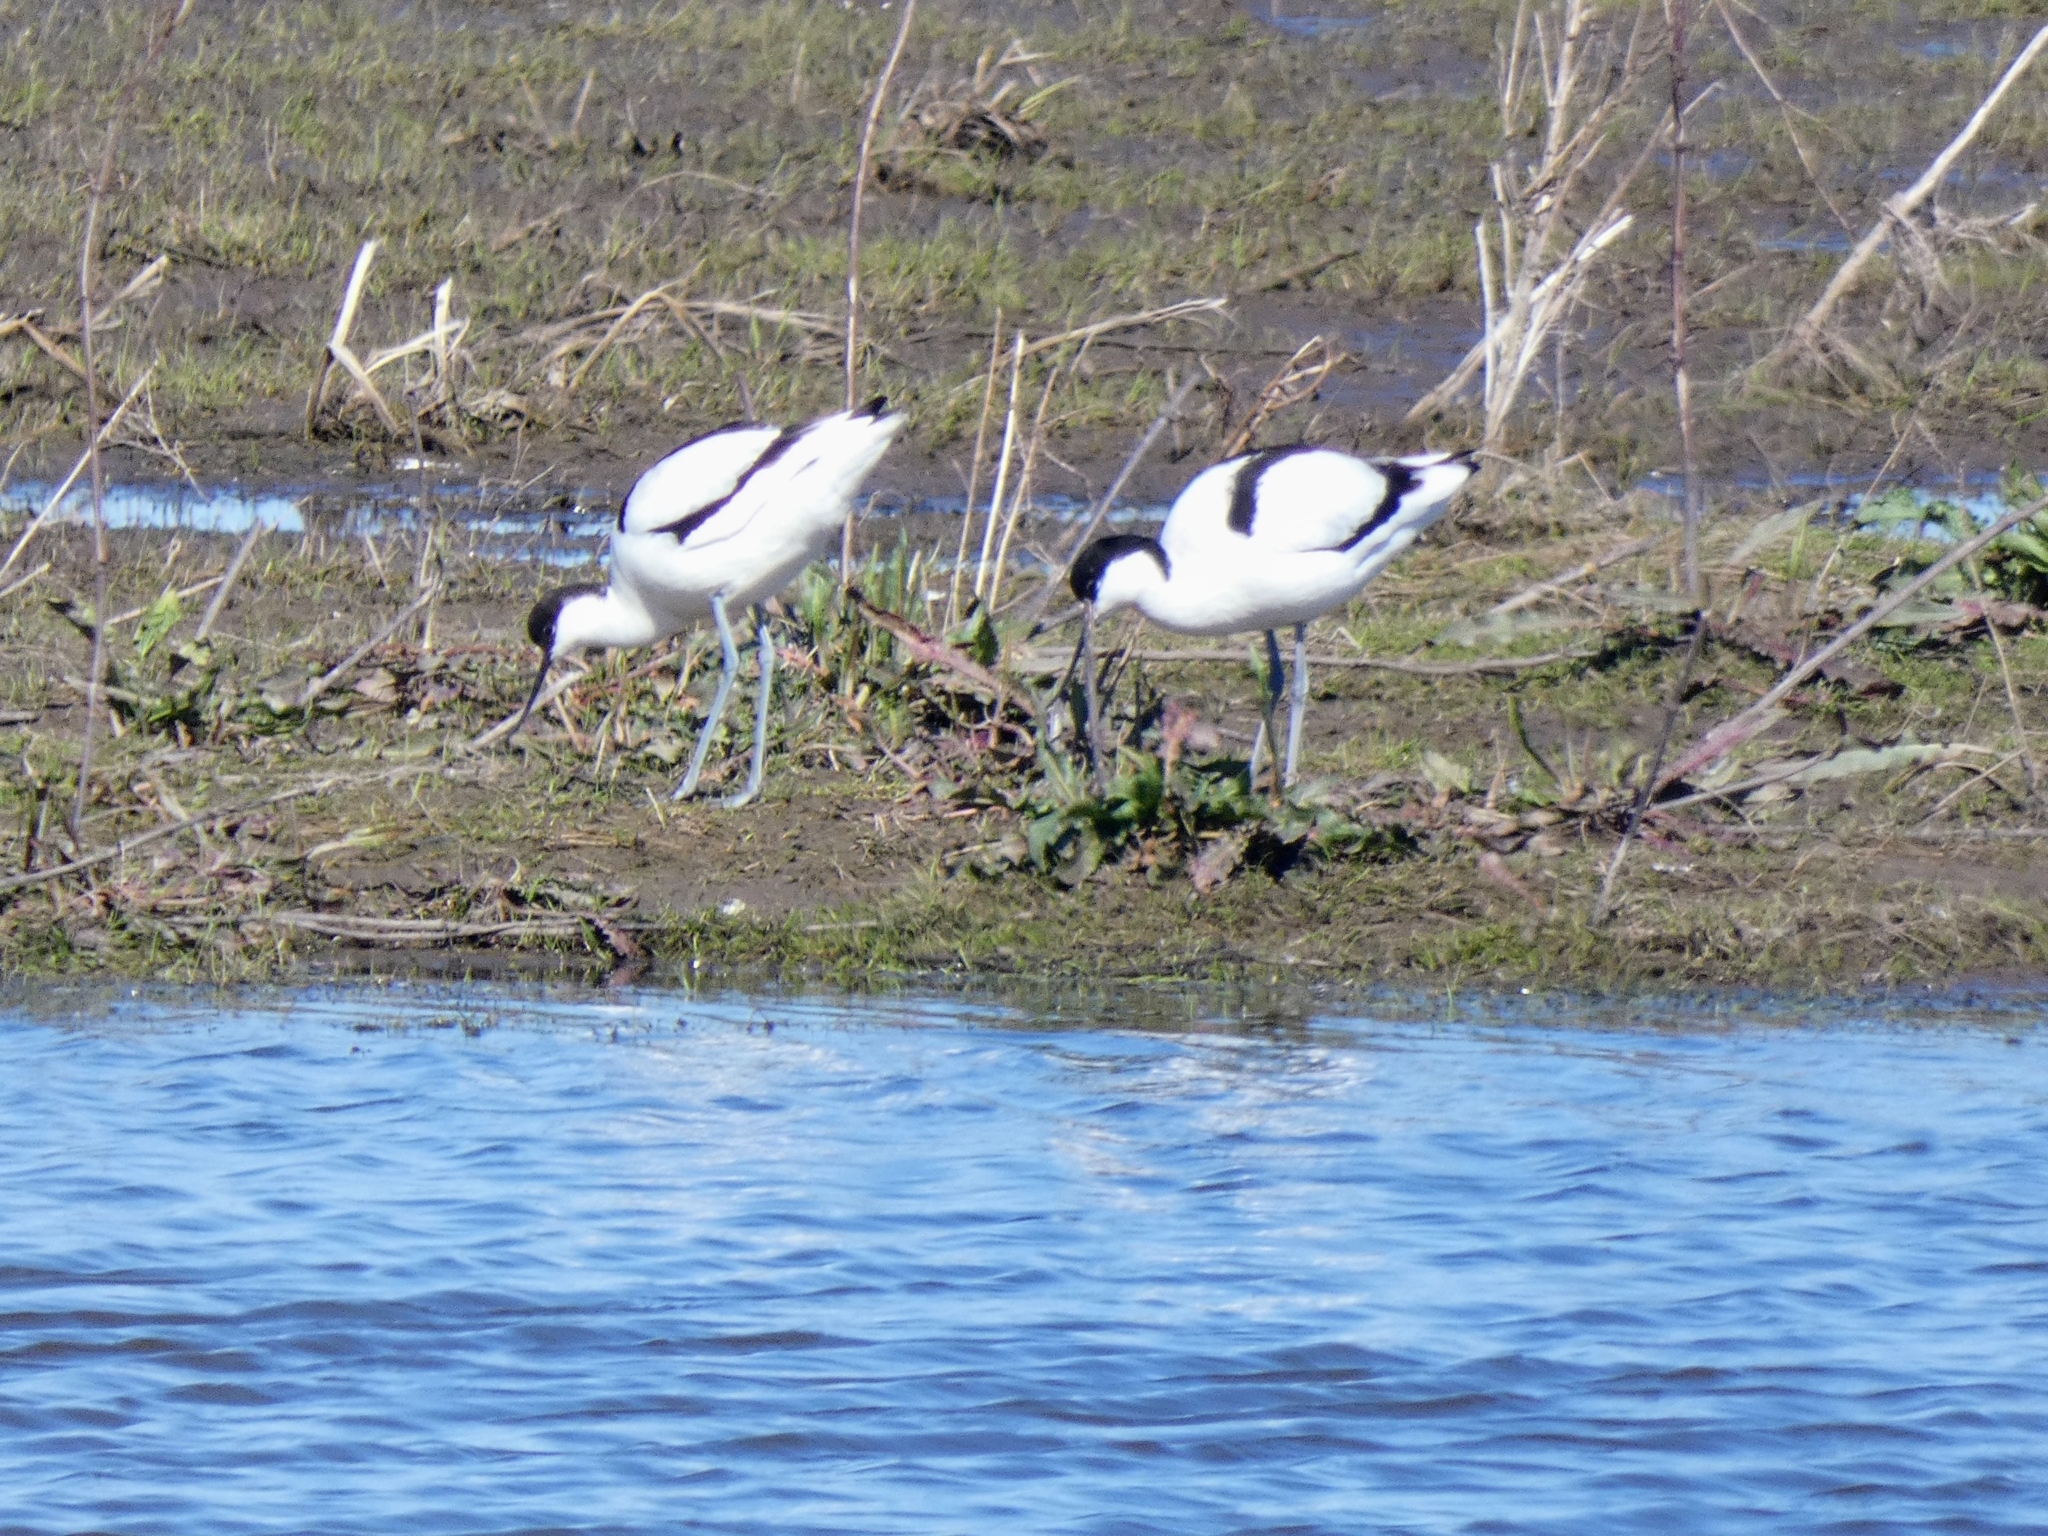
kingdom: Animalia
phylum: Chordata
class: Aves
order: Charadriiformes
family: Recurvirostridae
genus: Recurvirostra
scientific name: Recurvirostra avosetta
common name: Pied avocet
